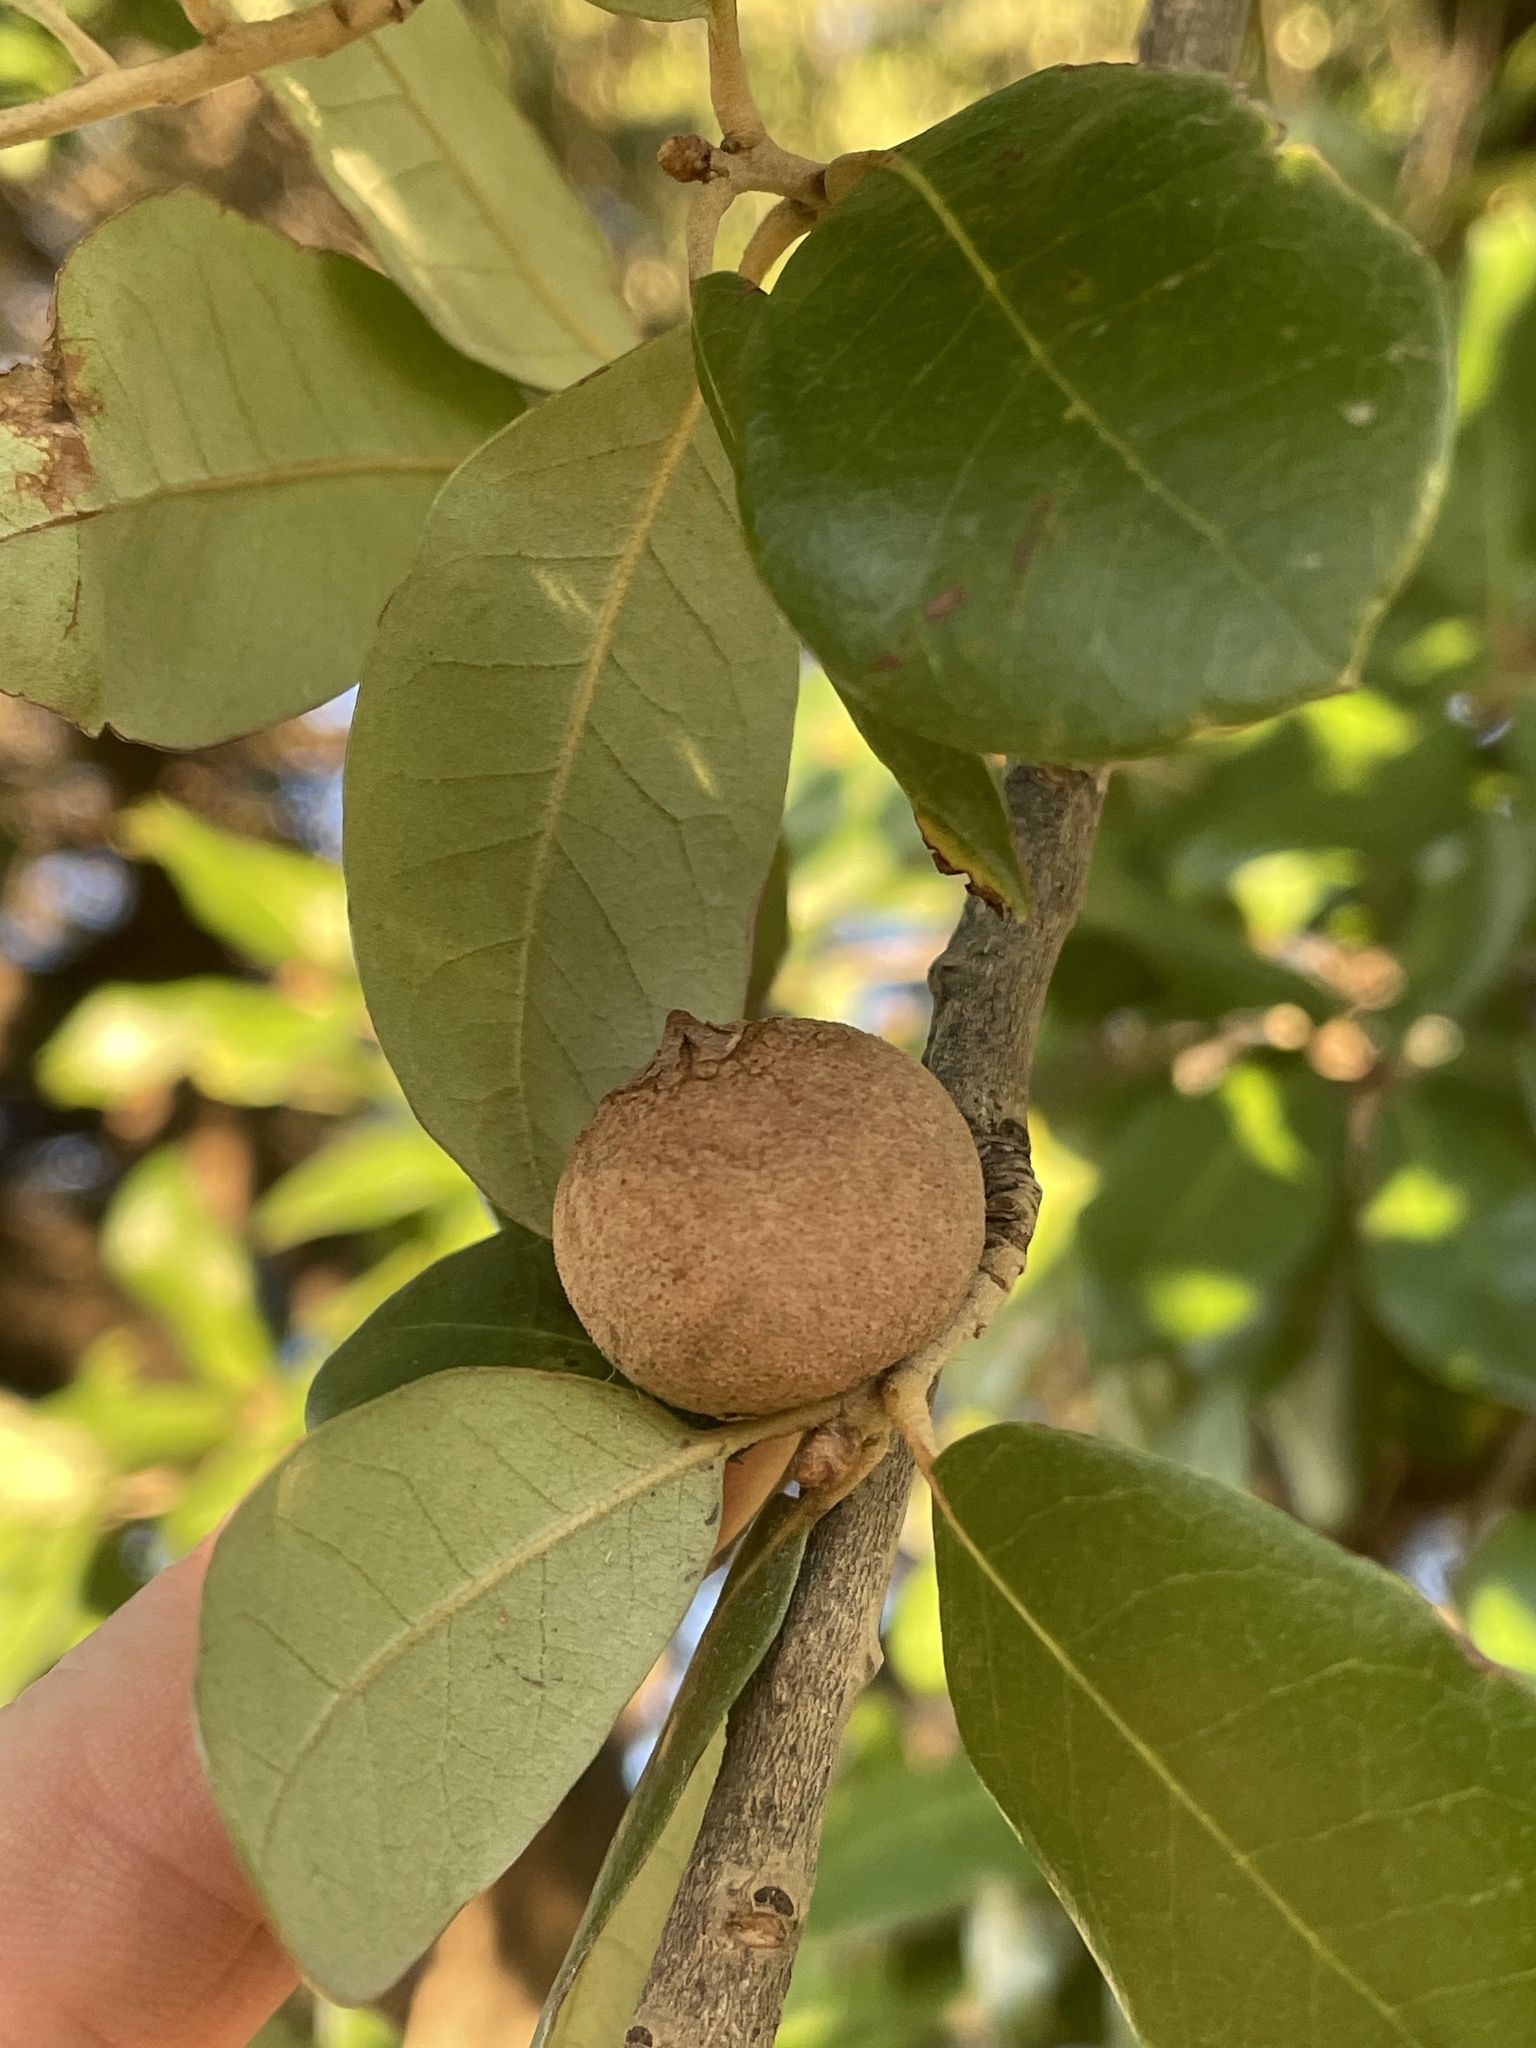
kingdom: Animalia
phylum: Arthropoda
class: Insecta
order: Hymenoptera
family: Cynipidae
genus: Disholcaspis
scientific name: Disholcaspis
